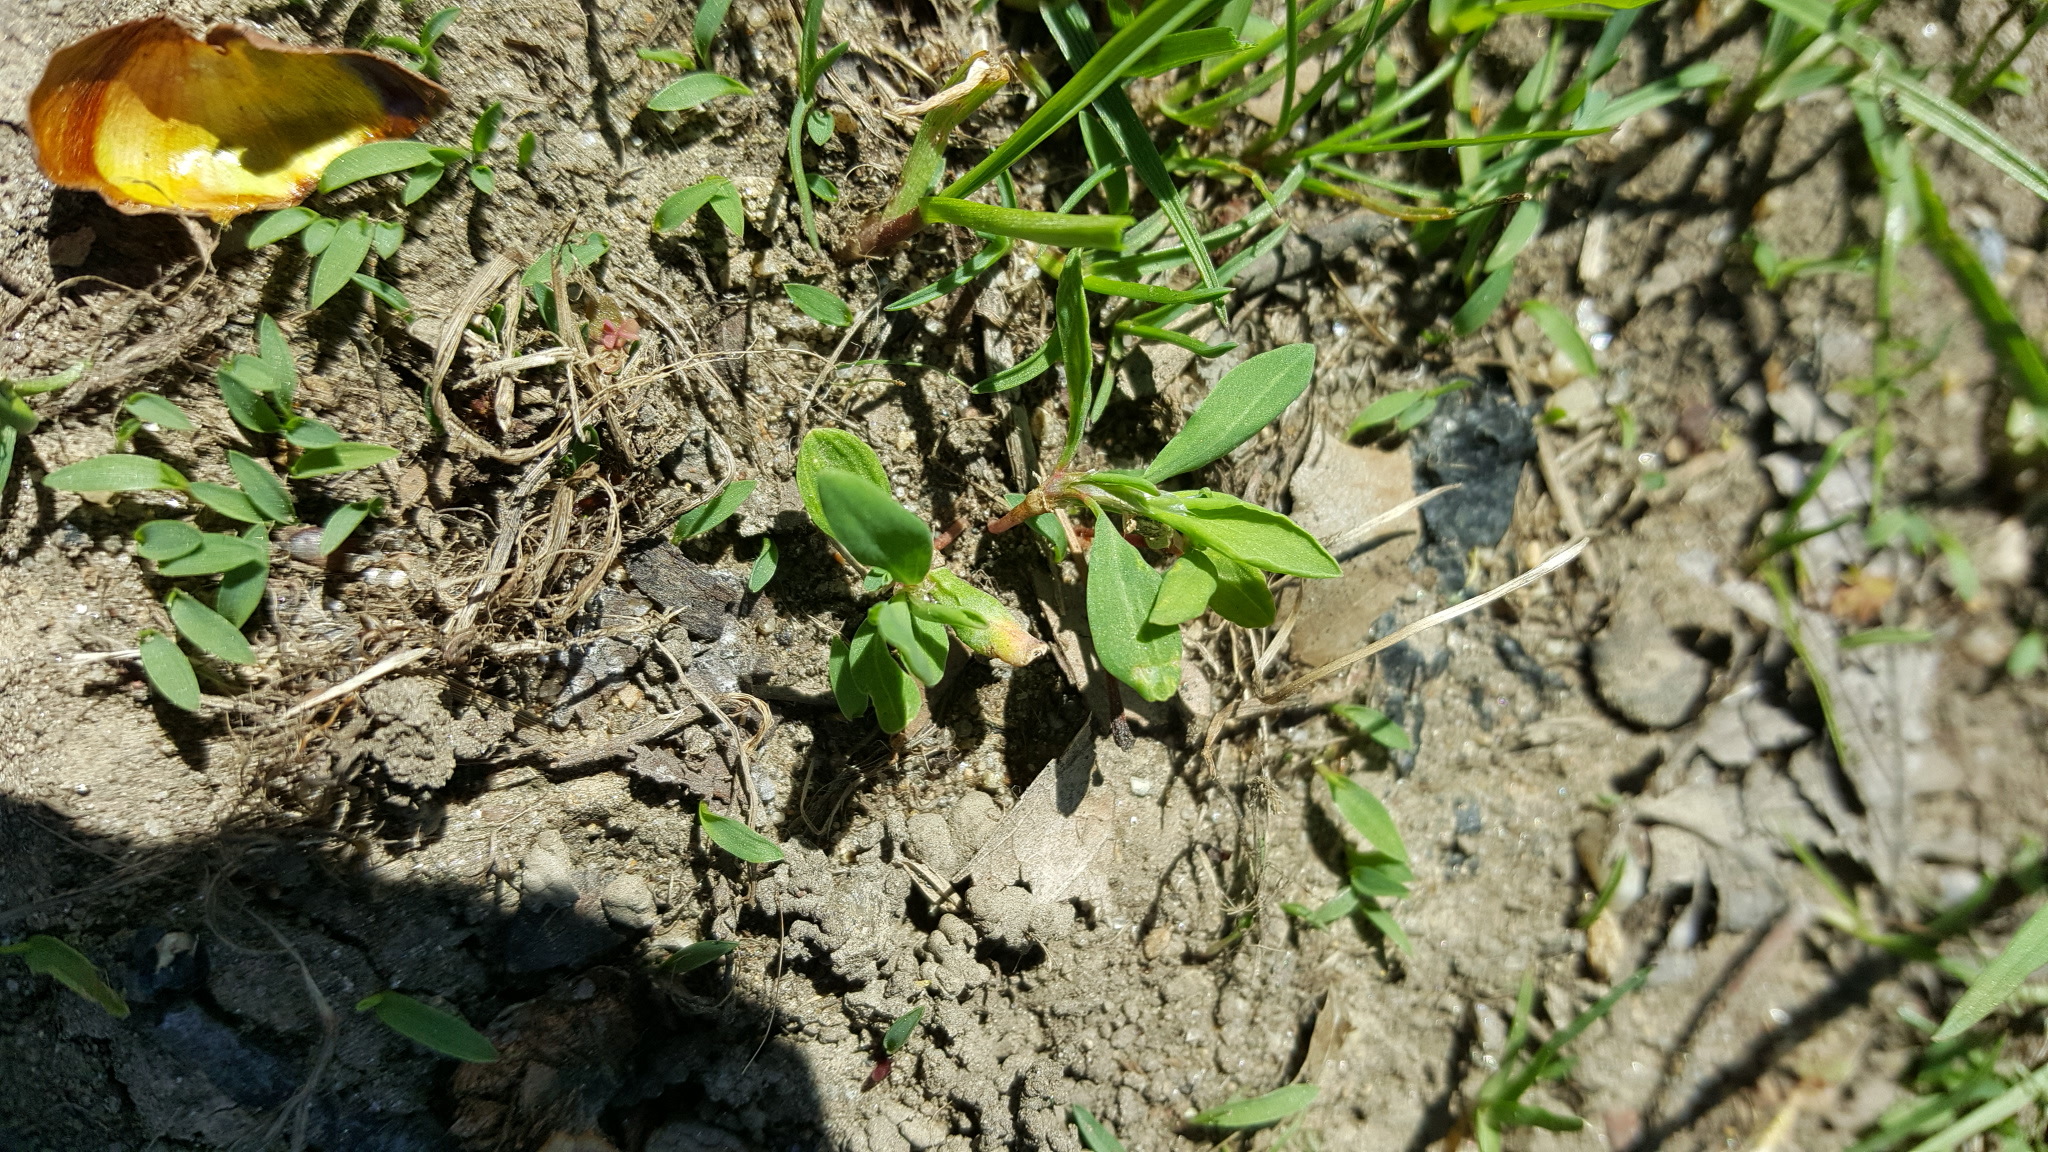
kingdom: Plantae
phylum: Tracheophyta
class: Magnoliopsida
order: Caryophyllales
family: Polygonaceae
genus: Polygonum
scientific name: Polygonum aviculare
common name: Prostrate knotweed
